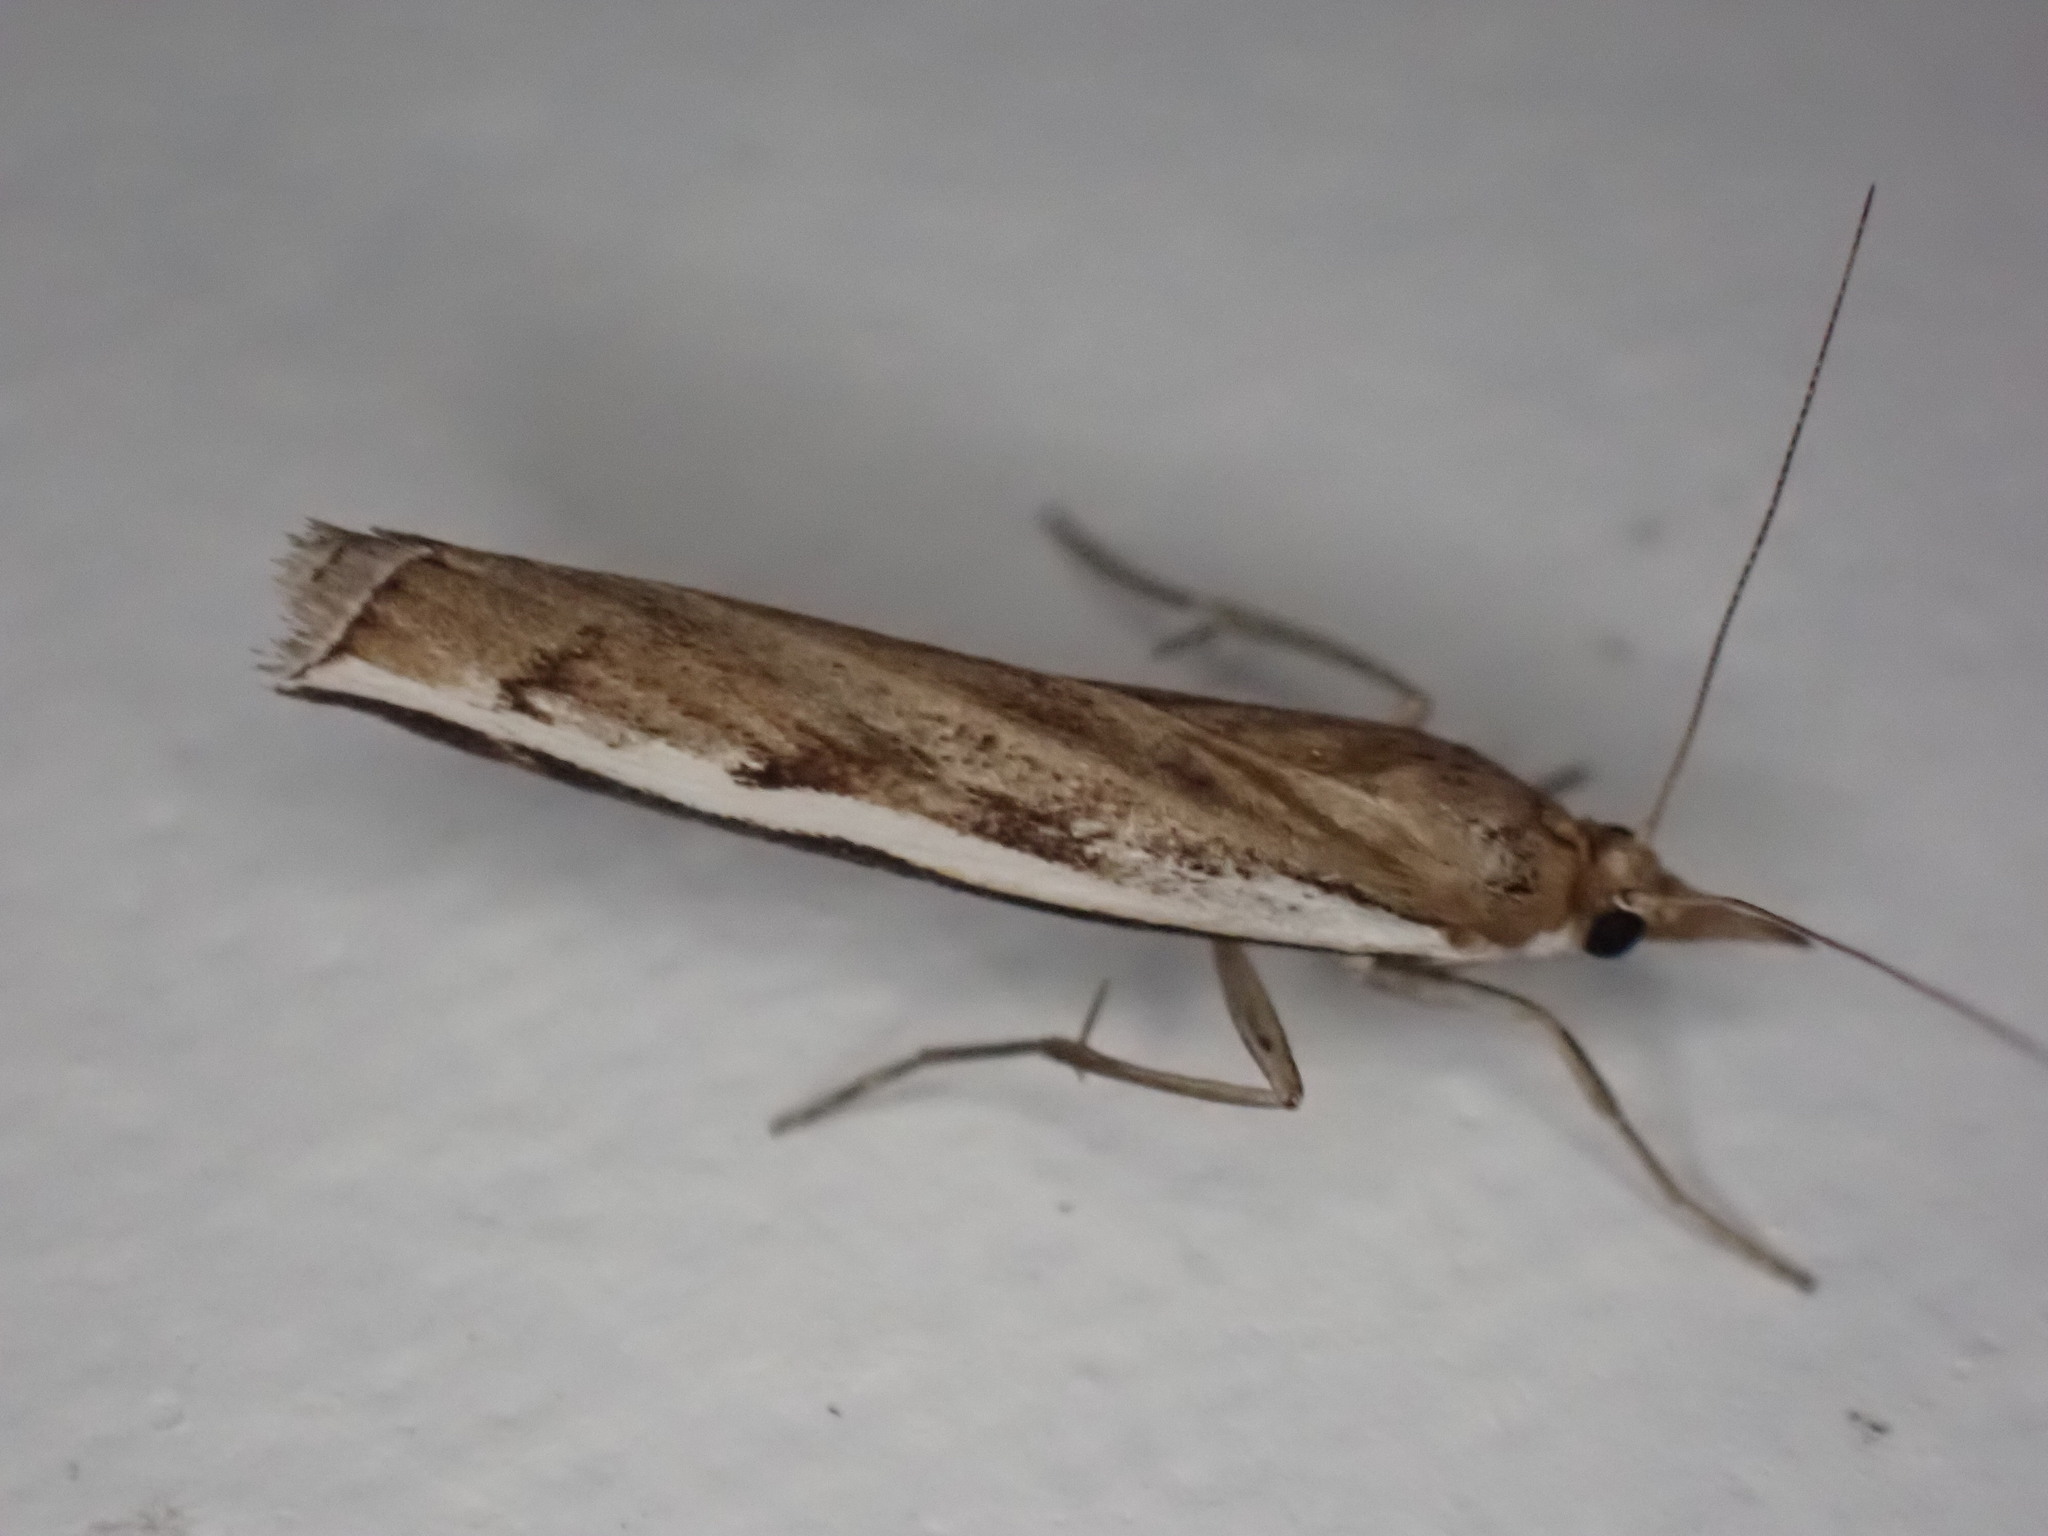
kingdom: Animalia
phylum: Arthropoda
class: Insecta
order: Lepidoptera
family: Crambidae
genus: Orocrambus
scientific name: Orocrambus flexuosellus
